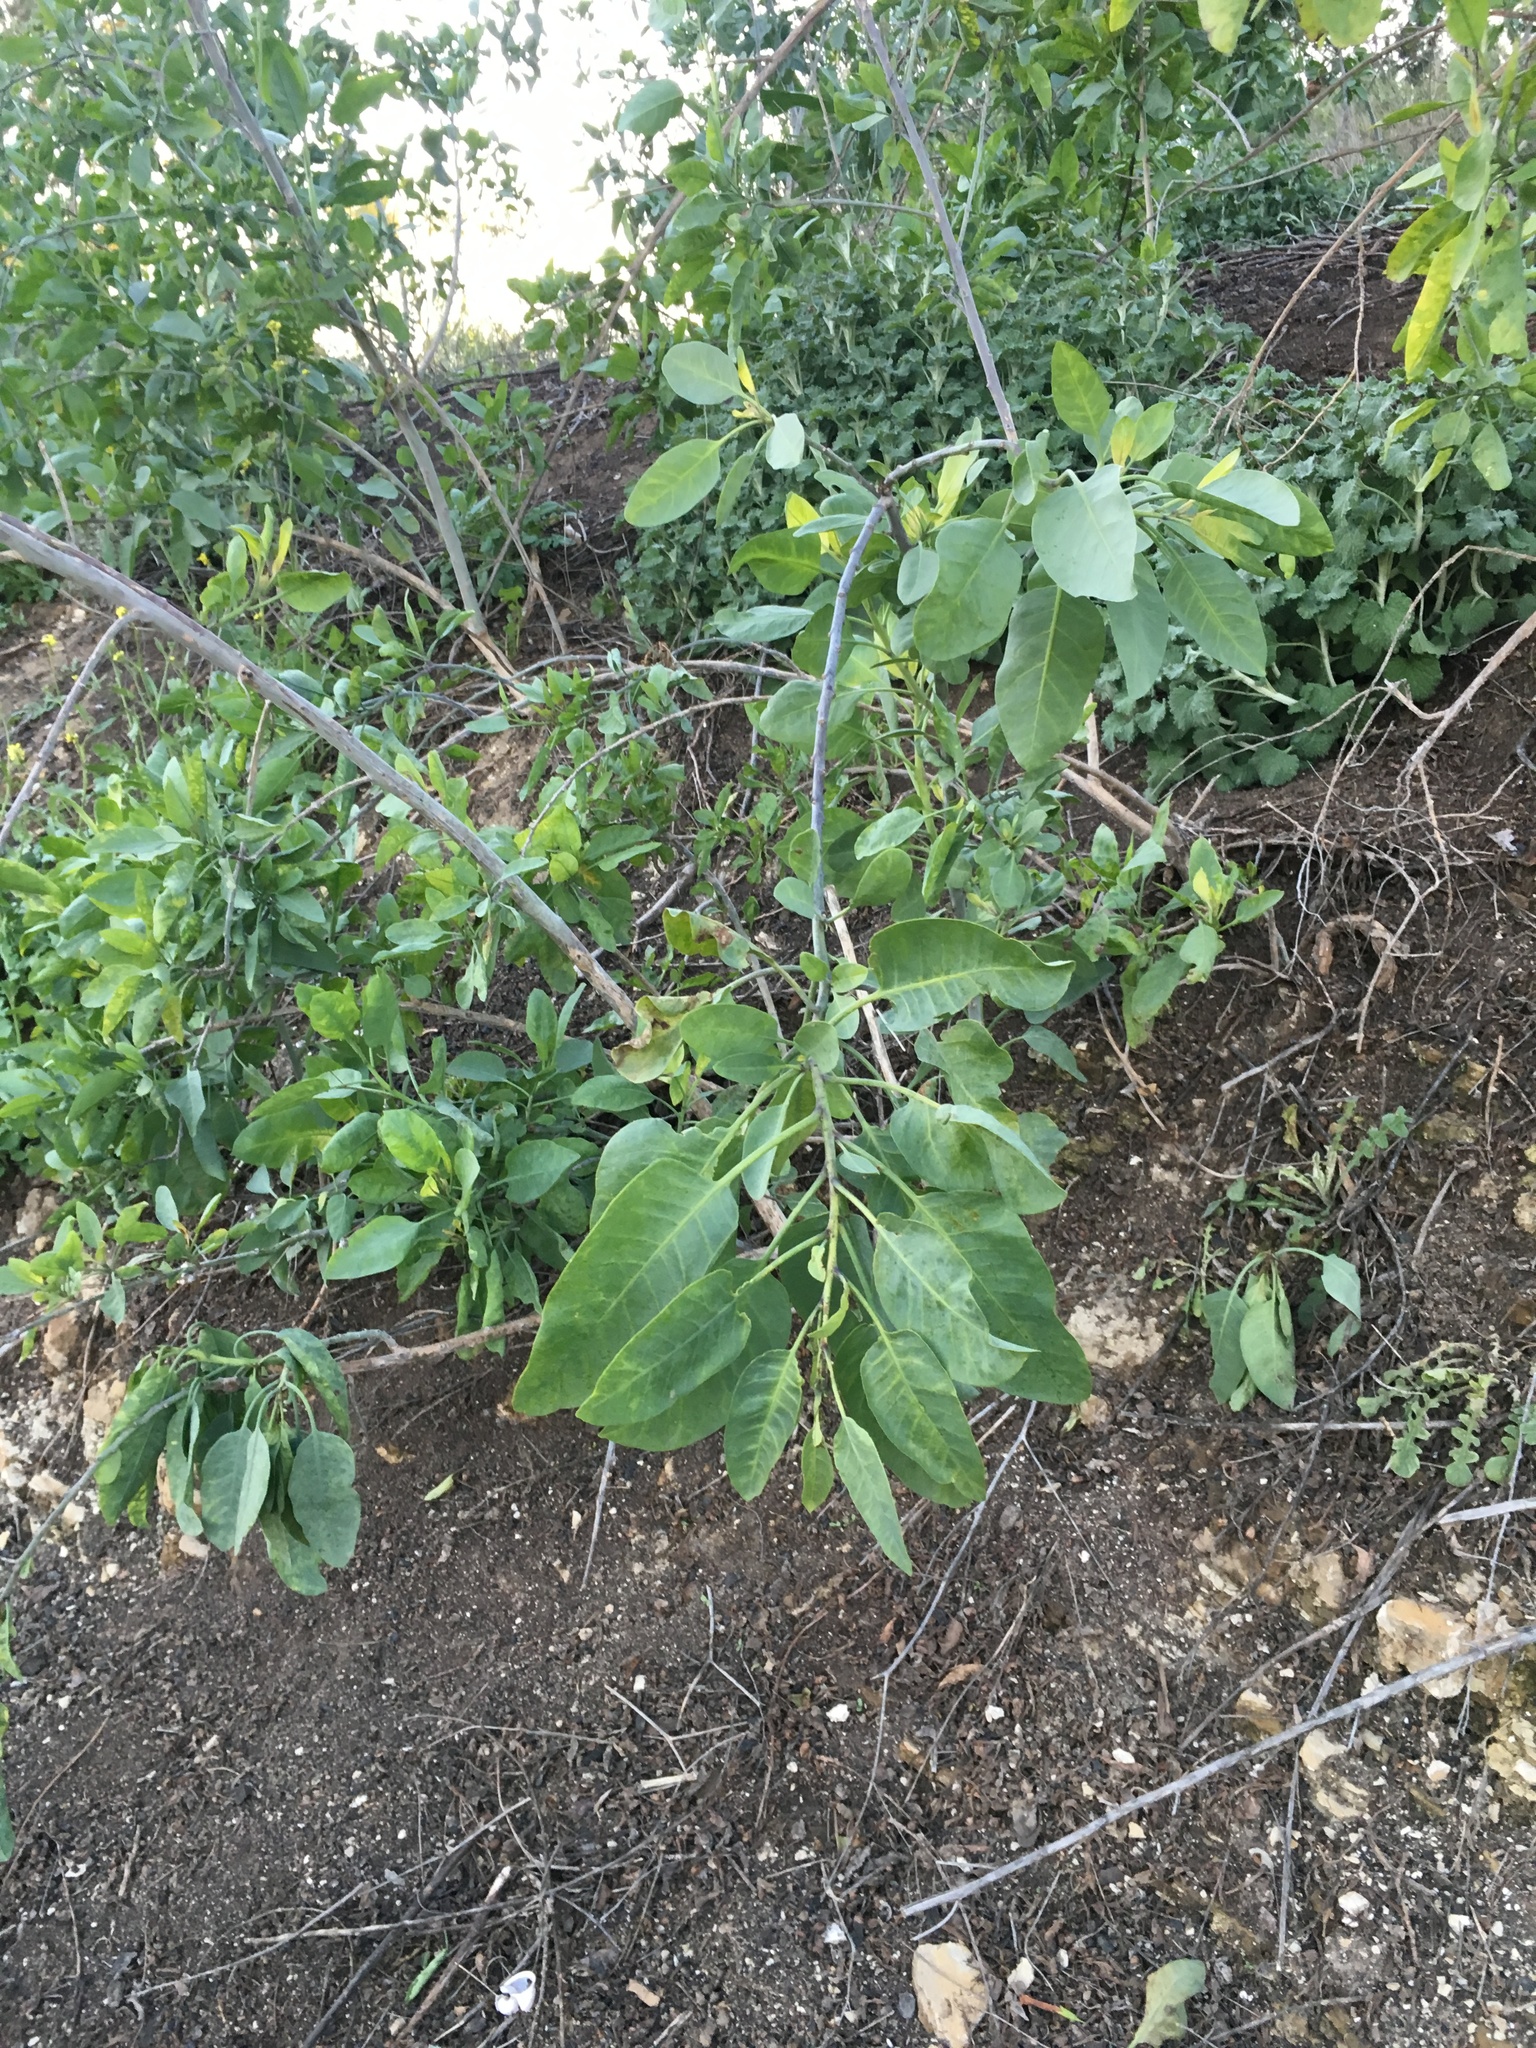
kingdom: Plantae
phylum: Tracheophyta
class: Magnoliopsida
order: Solanales
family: Solanaceae
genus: Nicotiana
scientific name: Nicotiana glauca
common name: Tree tobacco
